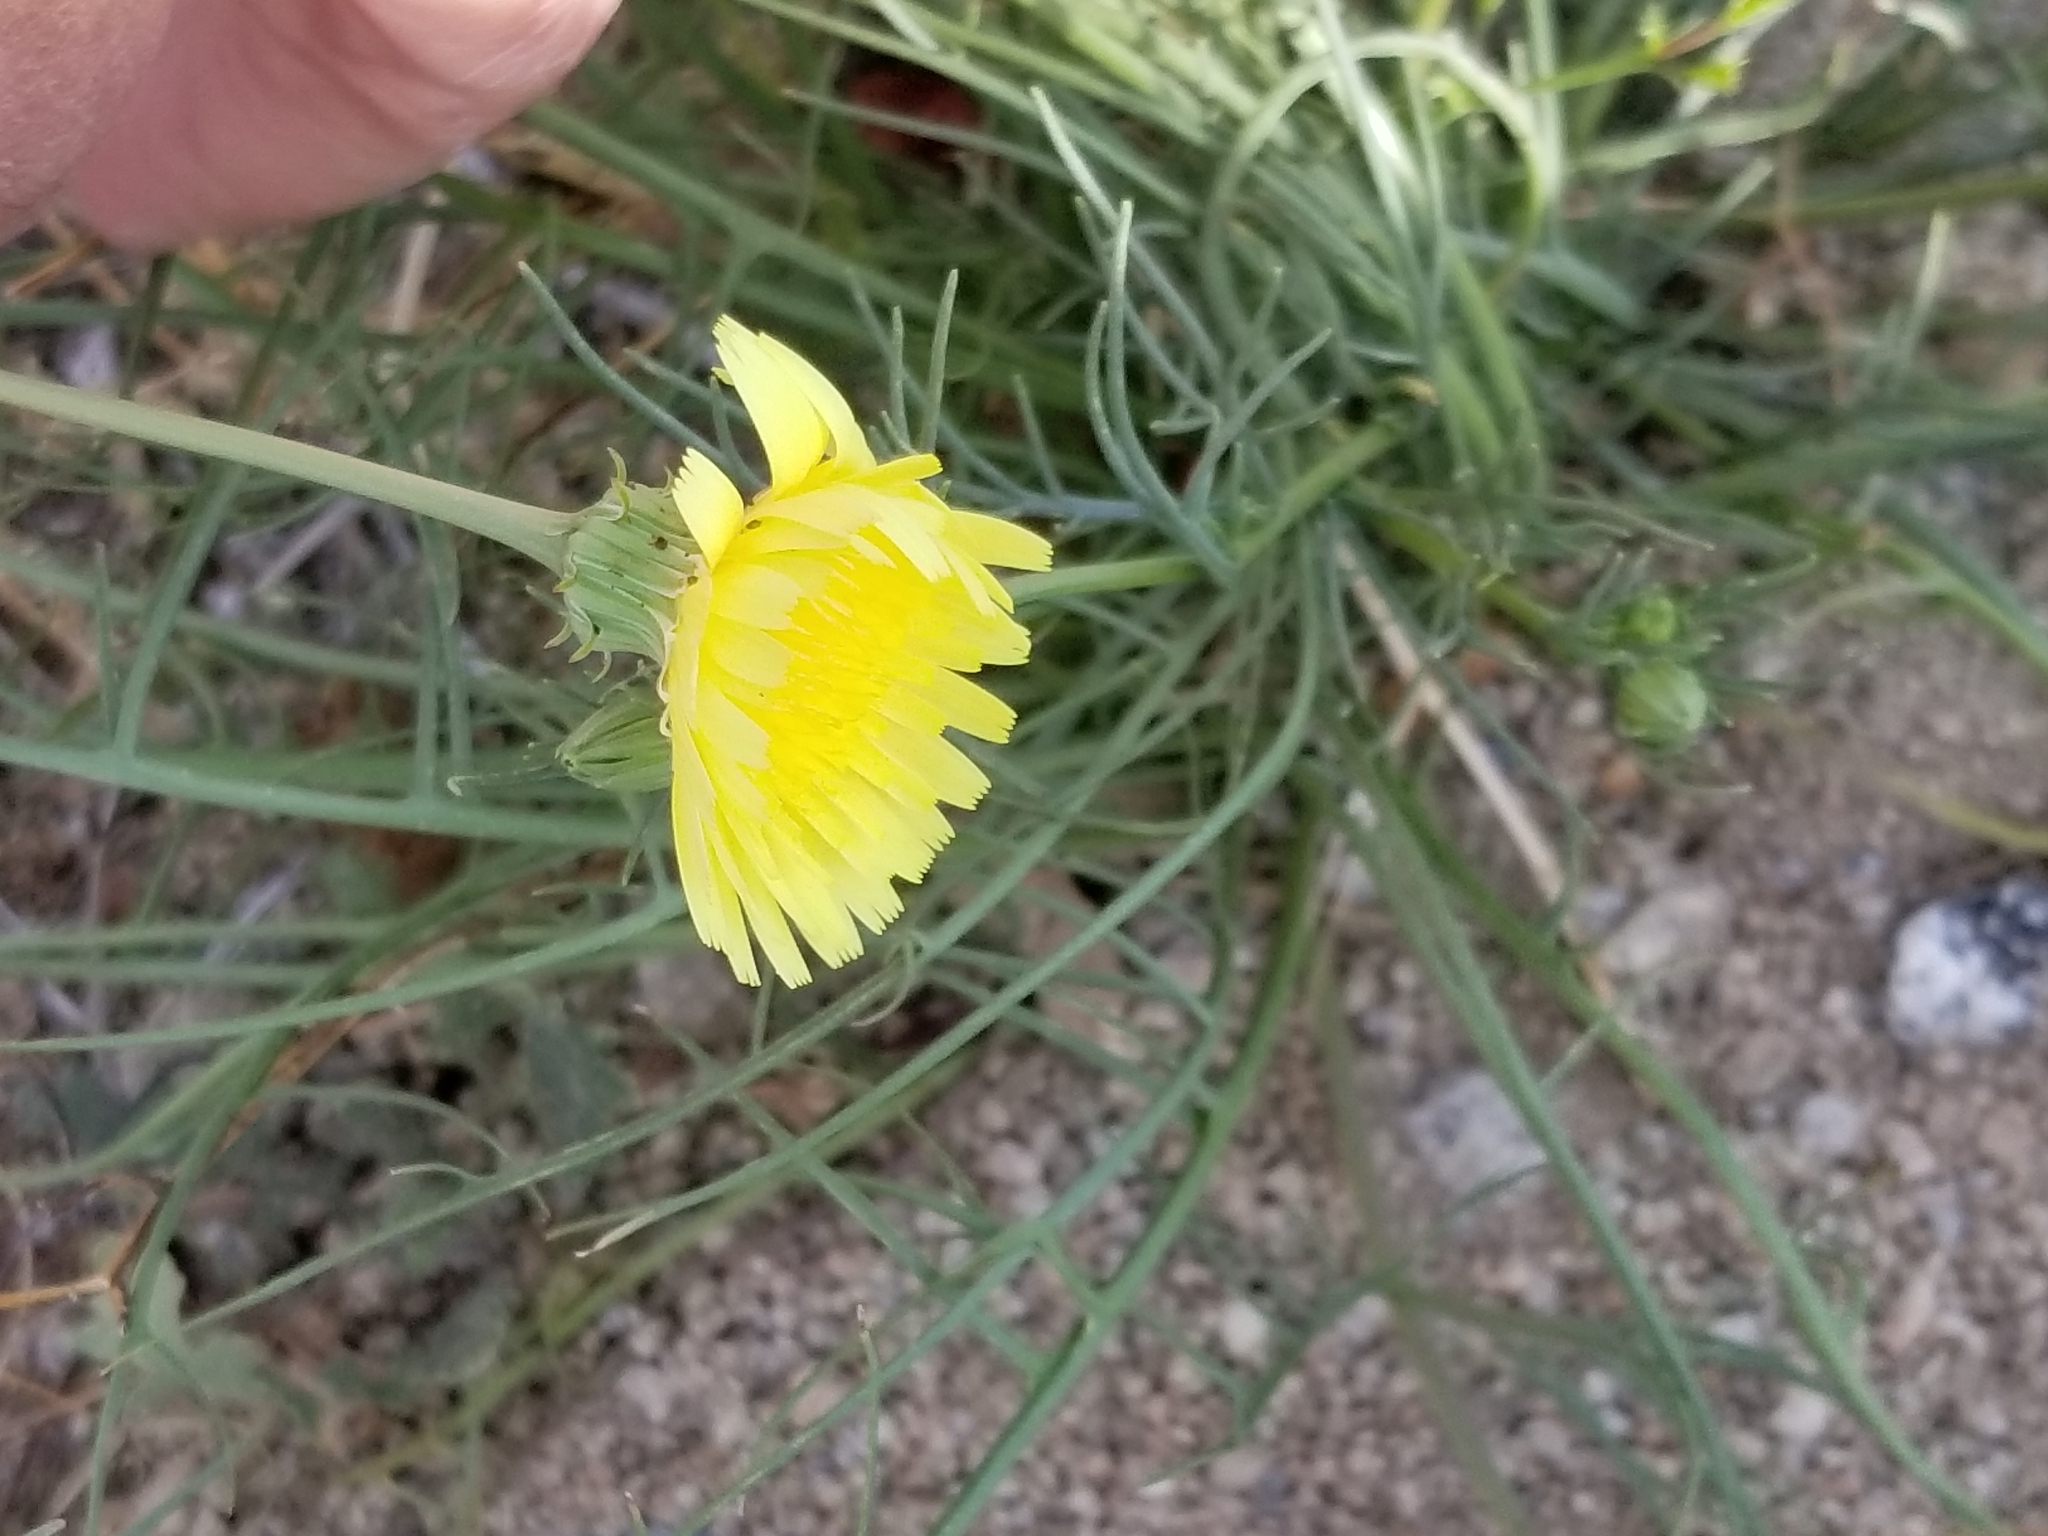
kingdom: Plantae
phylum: Tracheophyta
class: Magnoliopsida
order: Asterales
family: Asteraceae
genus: Malacothrix
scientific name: Malacothrix glabrata
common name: Smooth desert-dandelion
